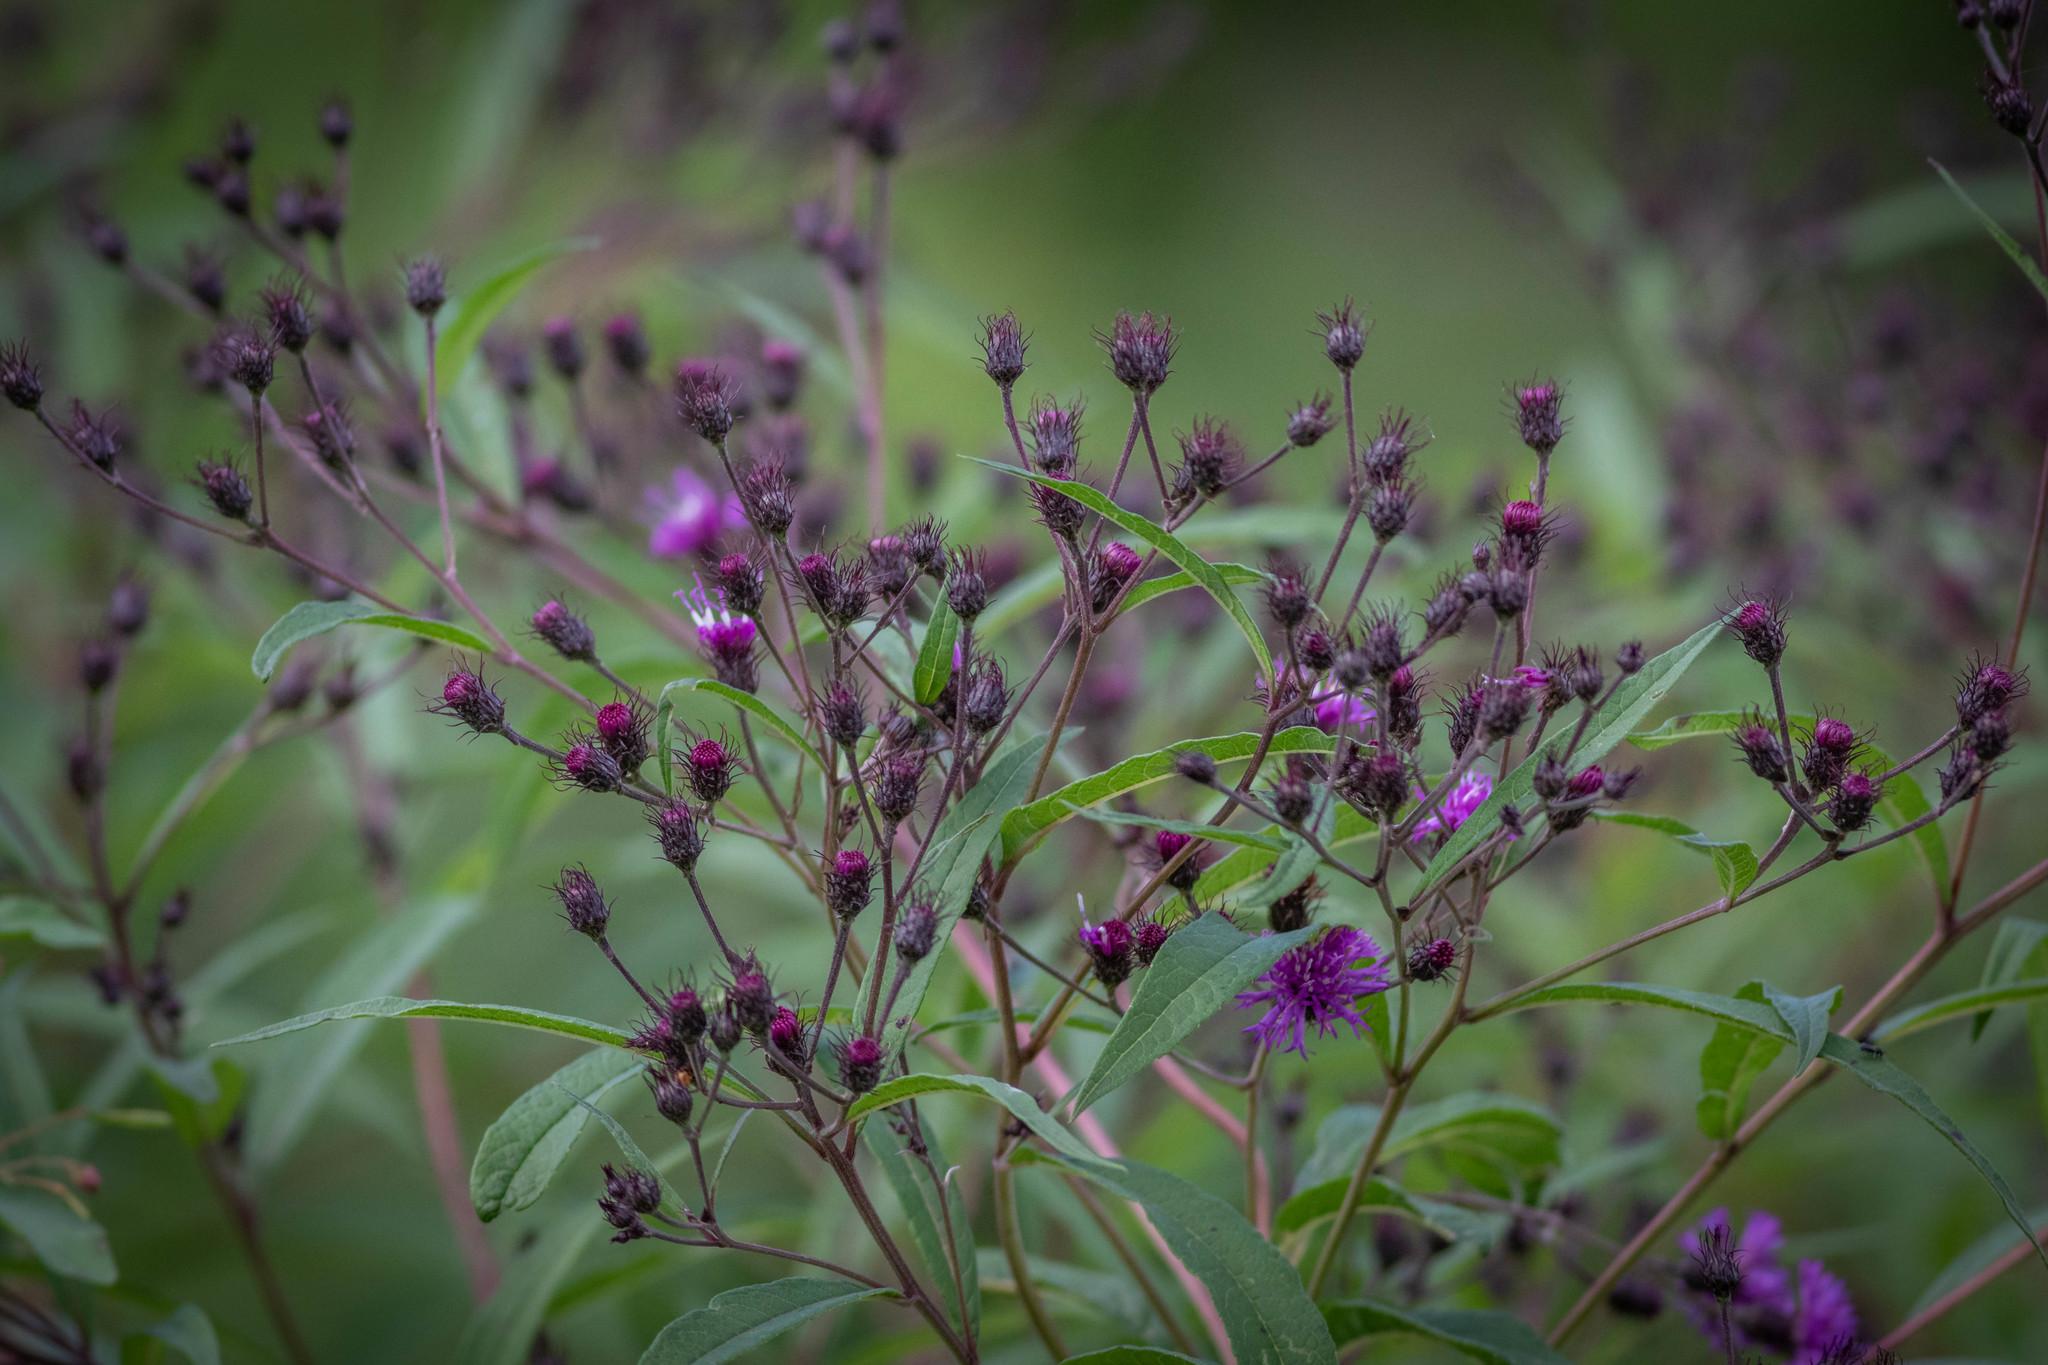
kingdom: Plantae
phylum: Tracheophyta
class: Magnoliopsida
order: Asterales
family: Asteraceae
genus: Vernonia
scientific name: Vernonia noveboracensis
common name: New york ironweed
